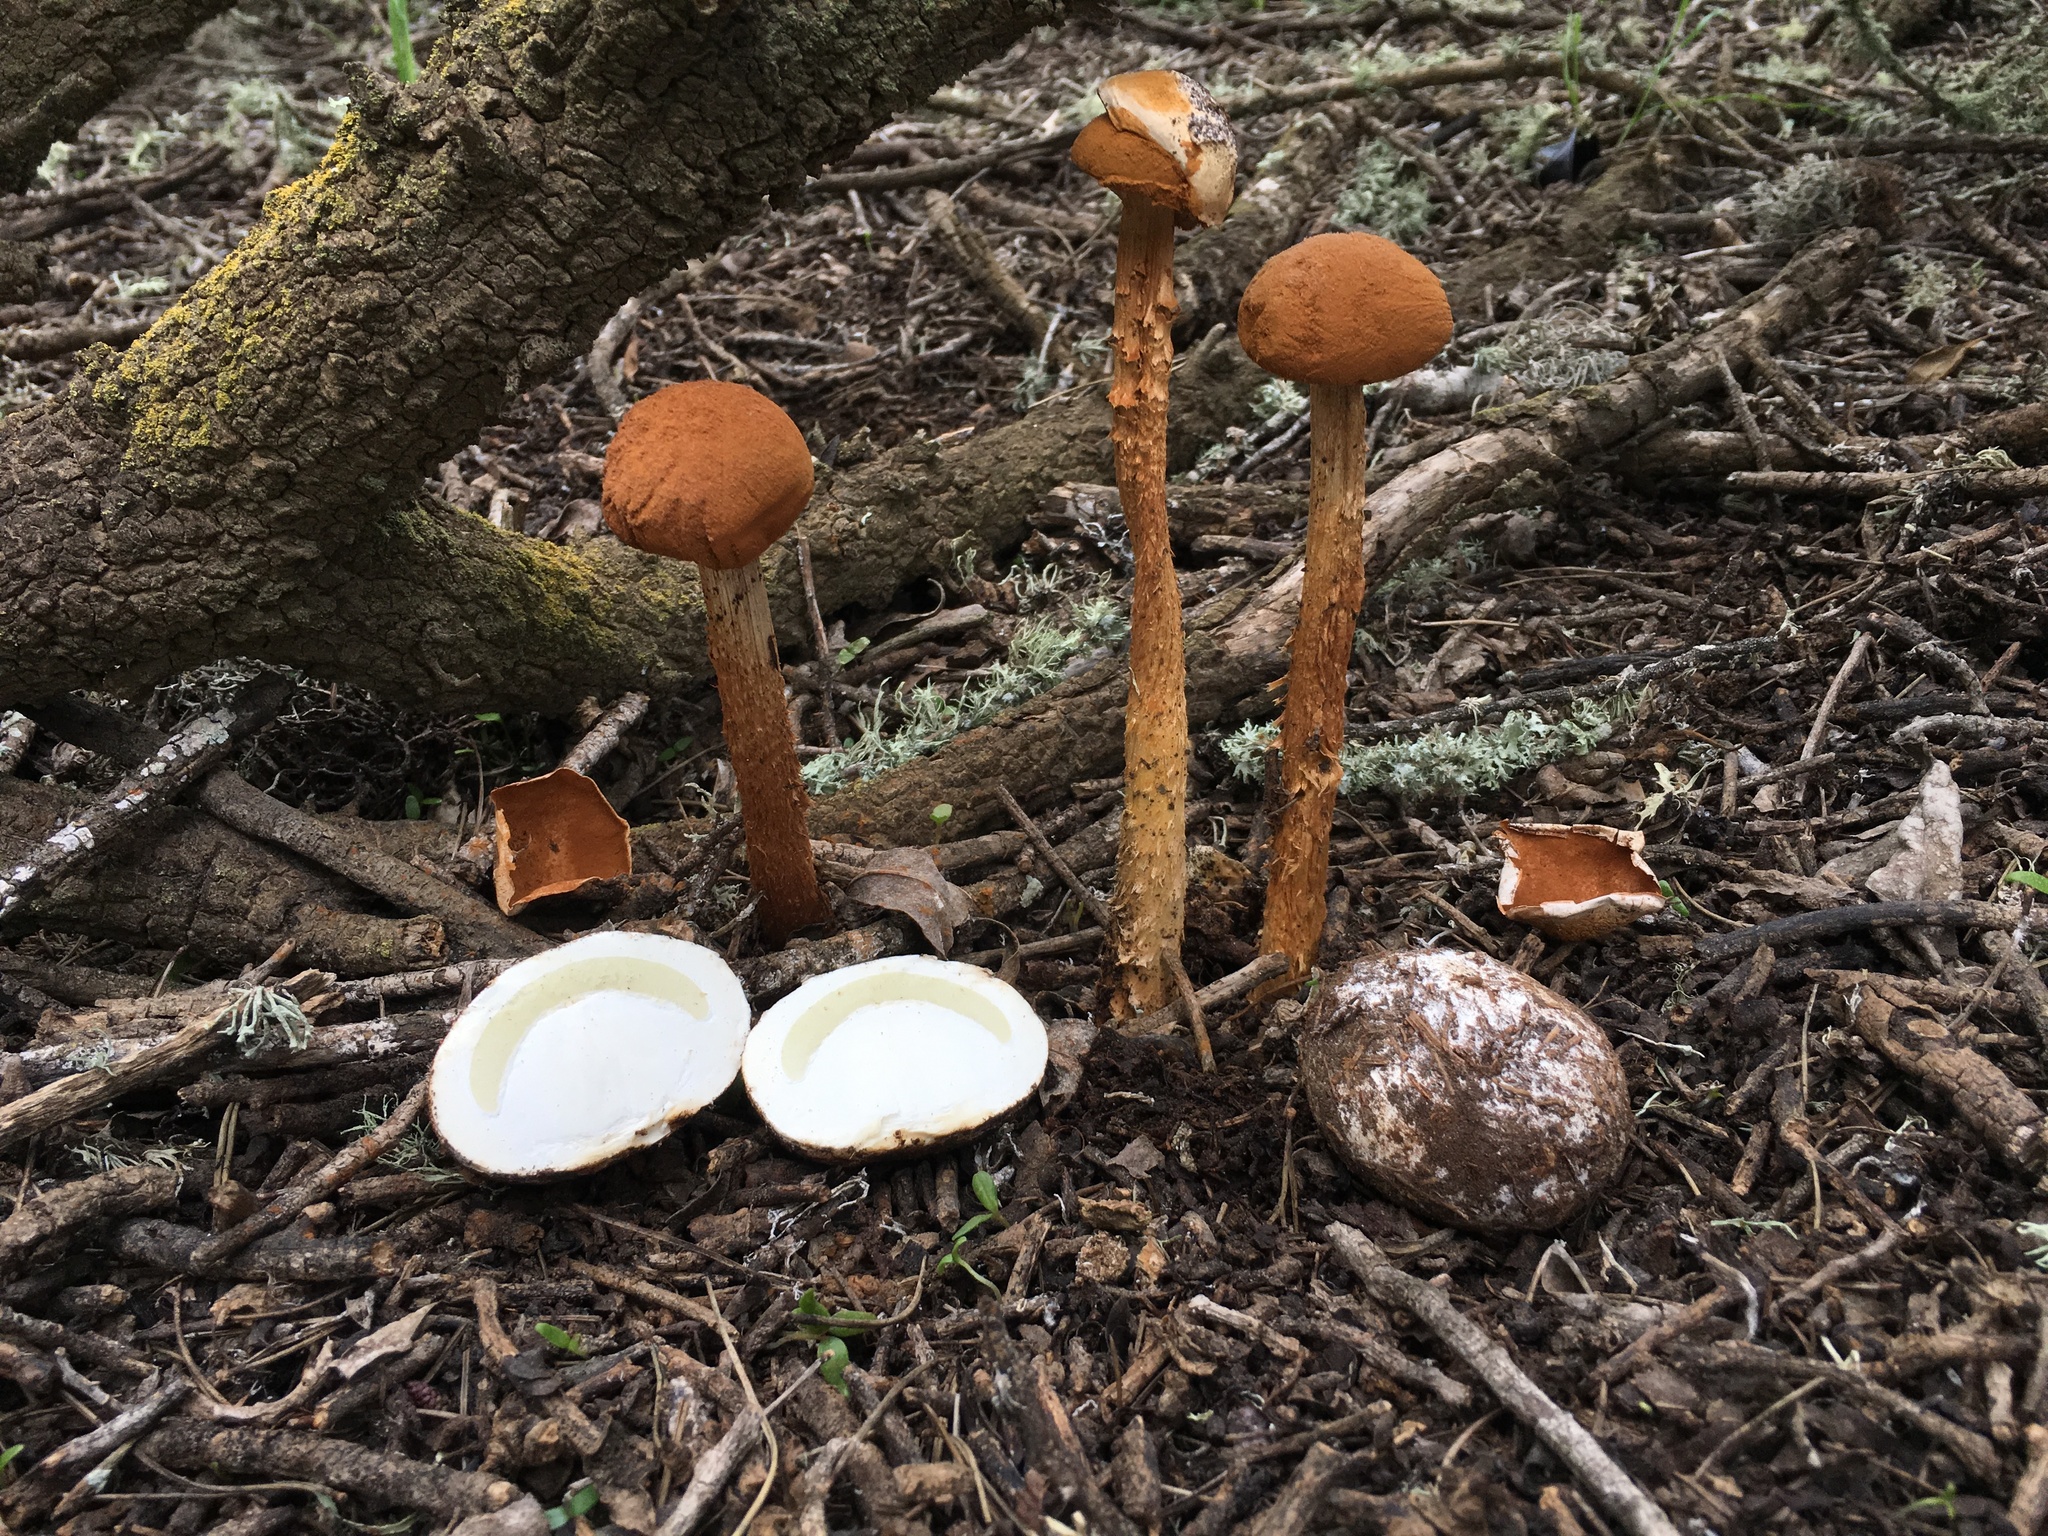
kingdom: Fungi
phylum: Basidiomycota
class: Agaricomycetes
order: Agaricales
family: Agaricaceae
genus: Battarrea
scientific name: Battarrea phalloides
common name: Sandy stiltball
